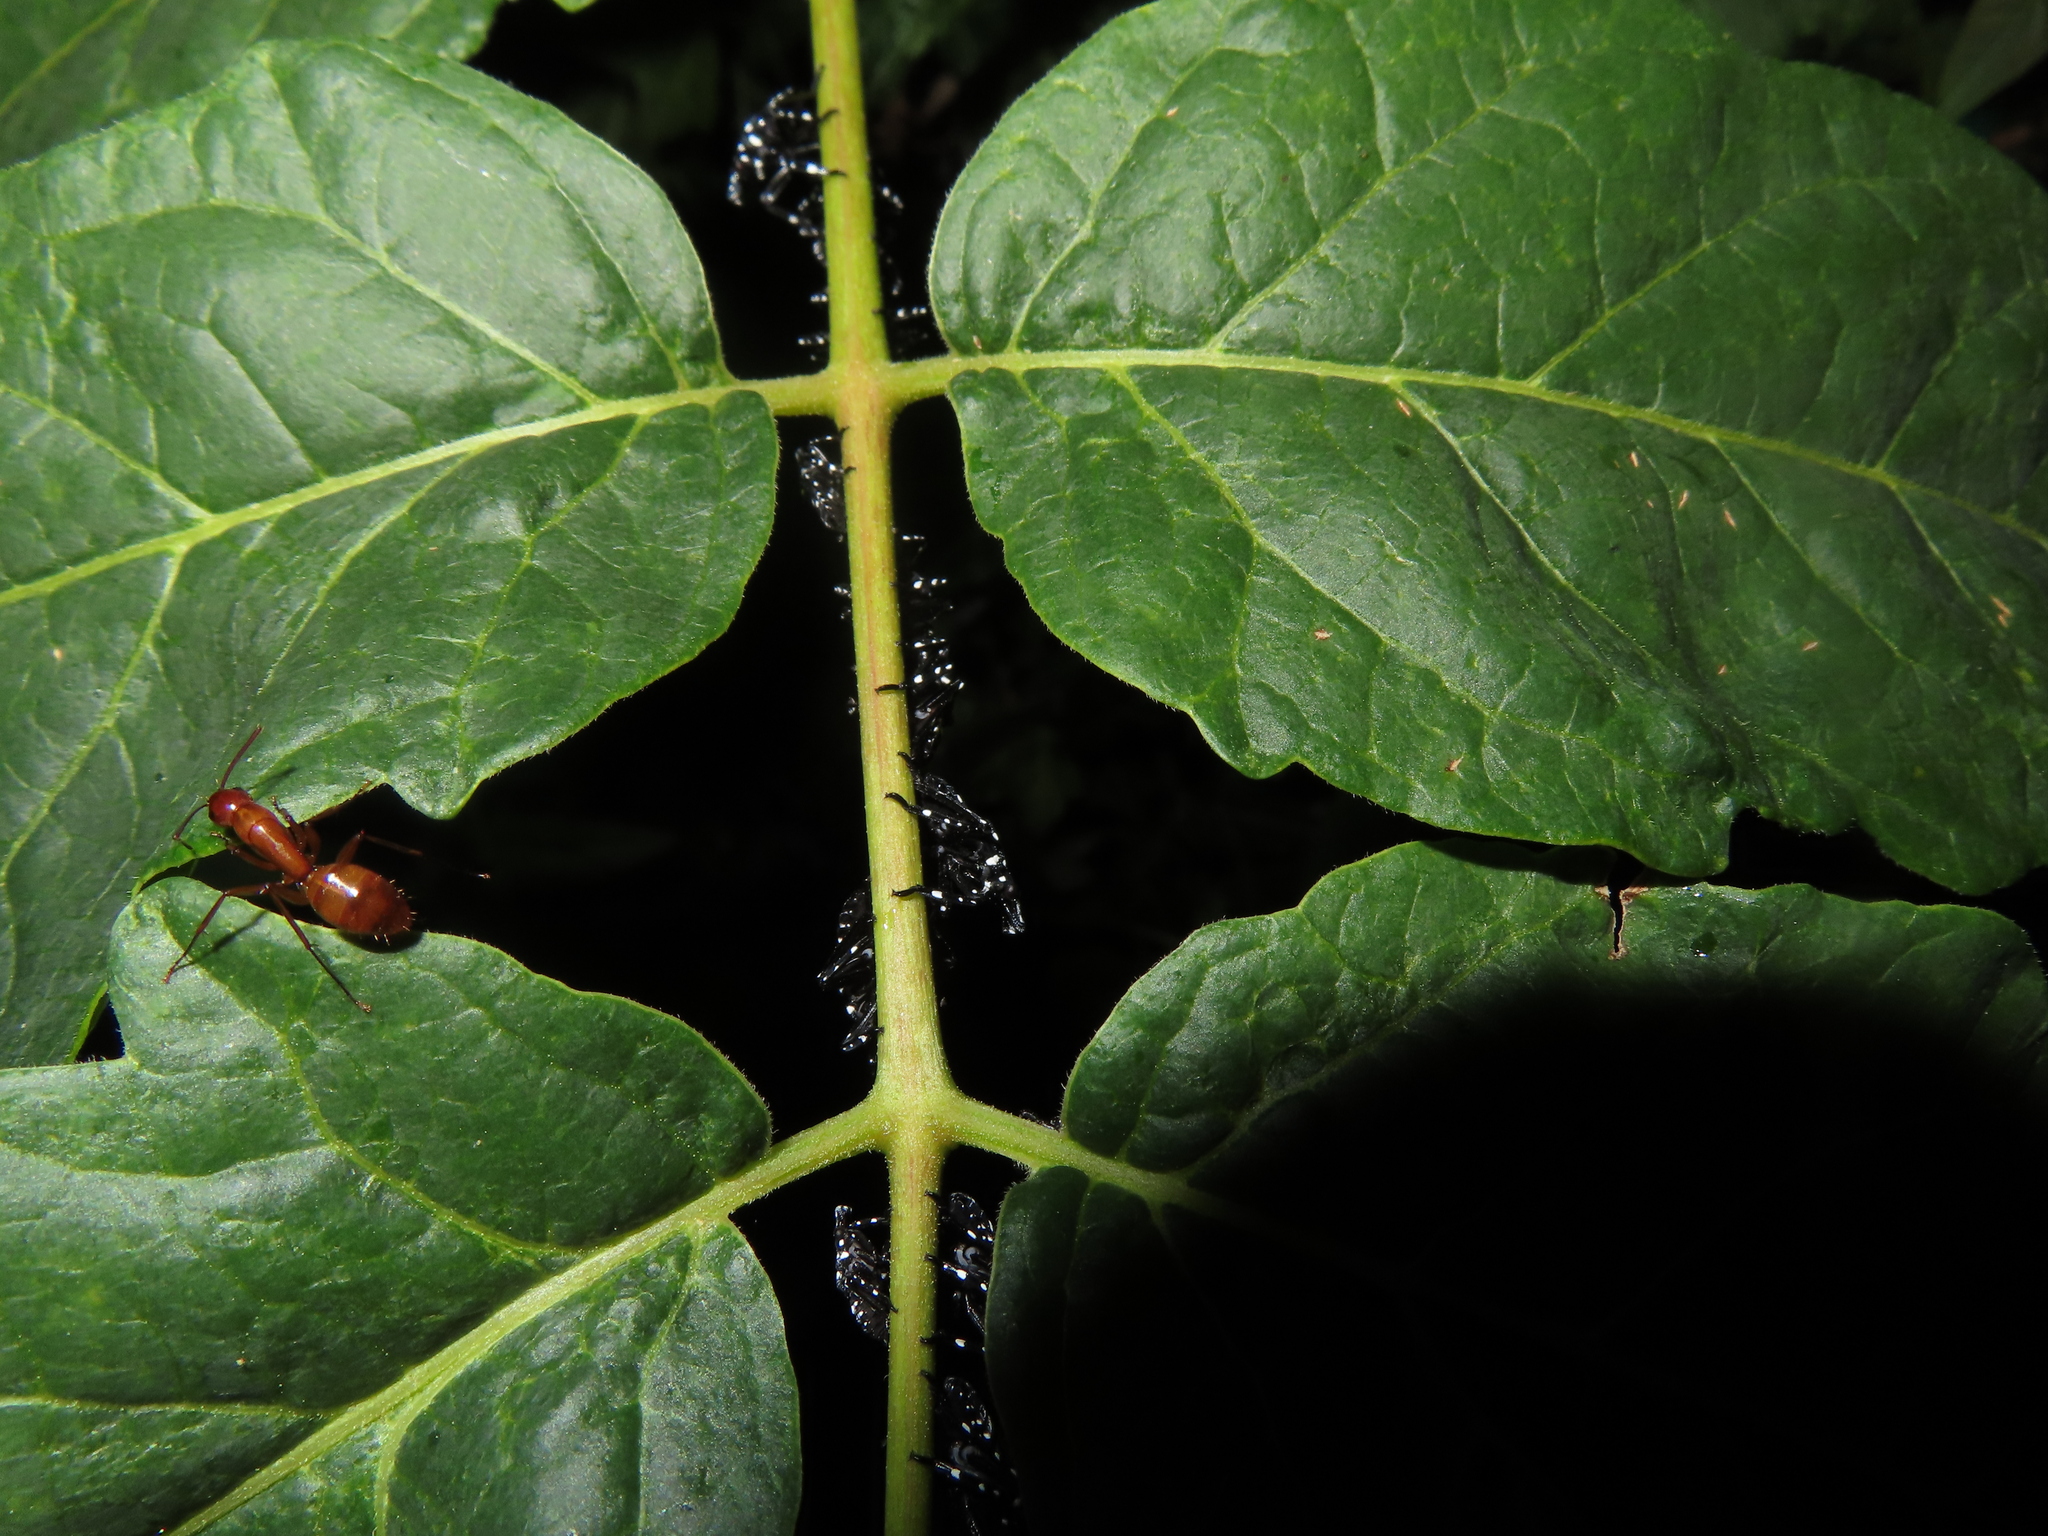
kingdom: Animalia
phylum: Arthropoda
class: Insecta
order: Hemiptera
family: Fulgoridae
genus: Lycorma
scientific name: Lycorma delicatula
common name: Spotted lanternfly
